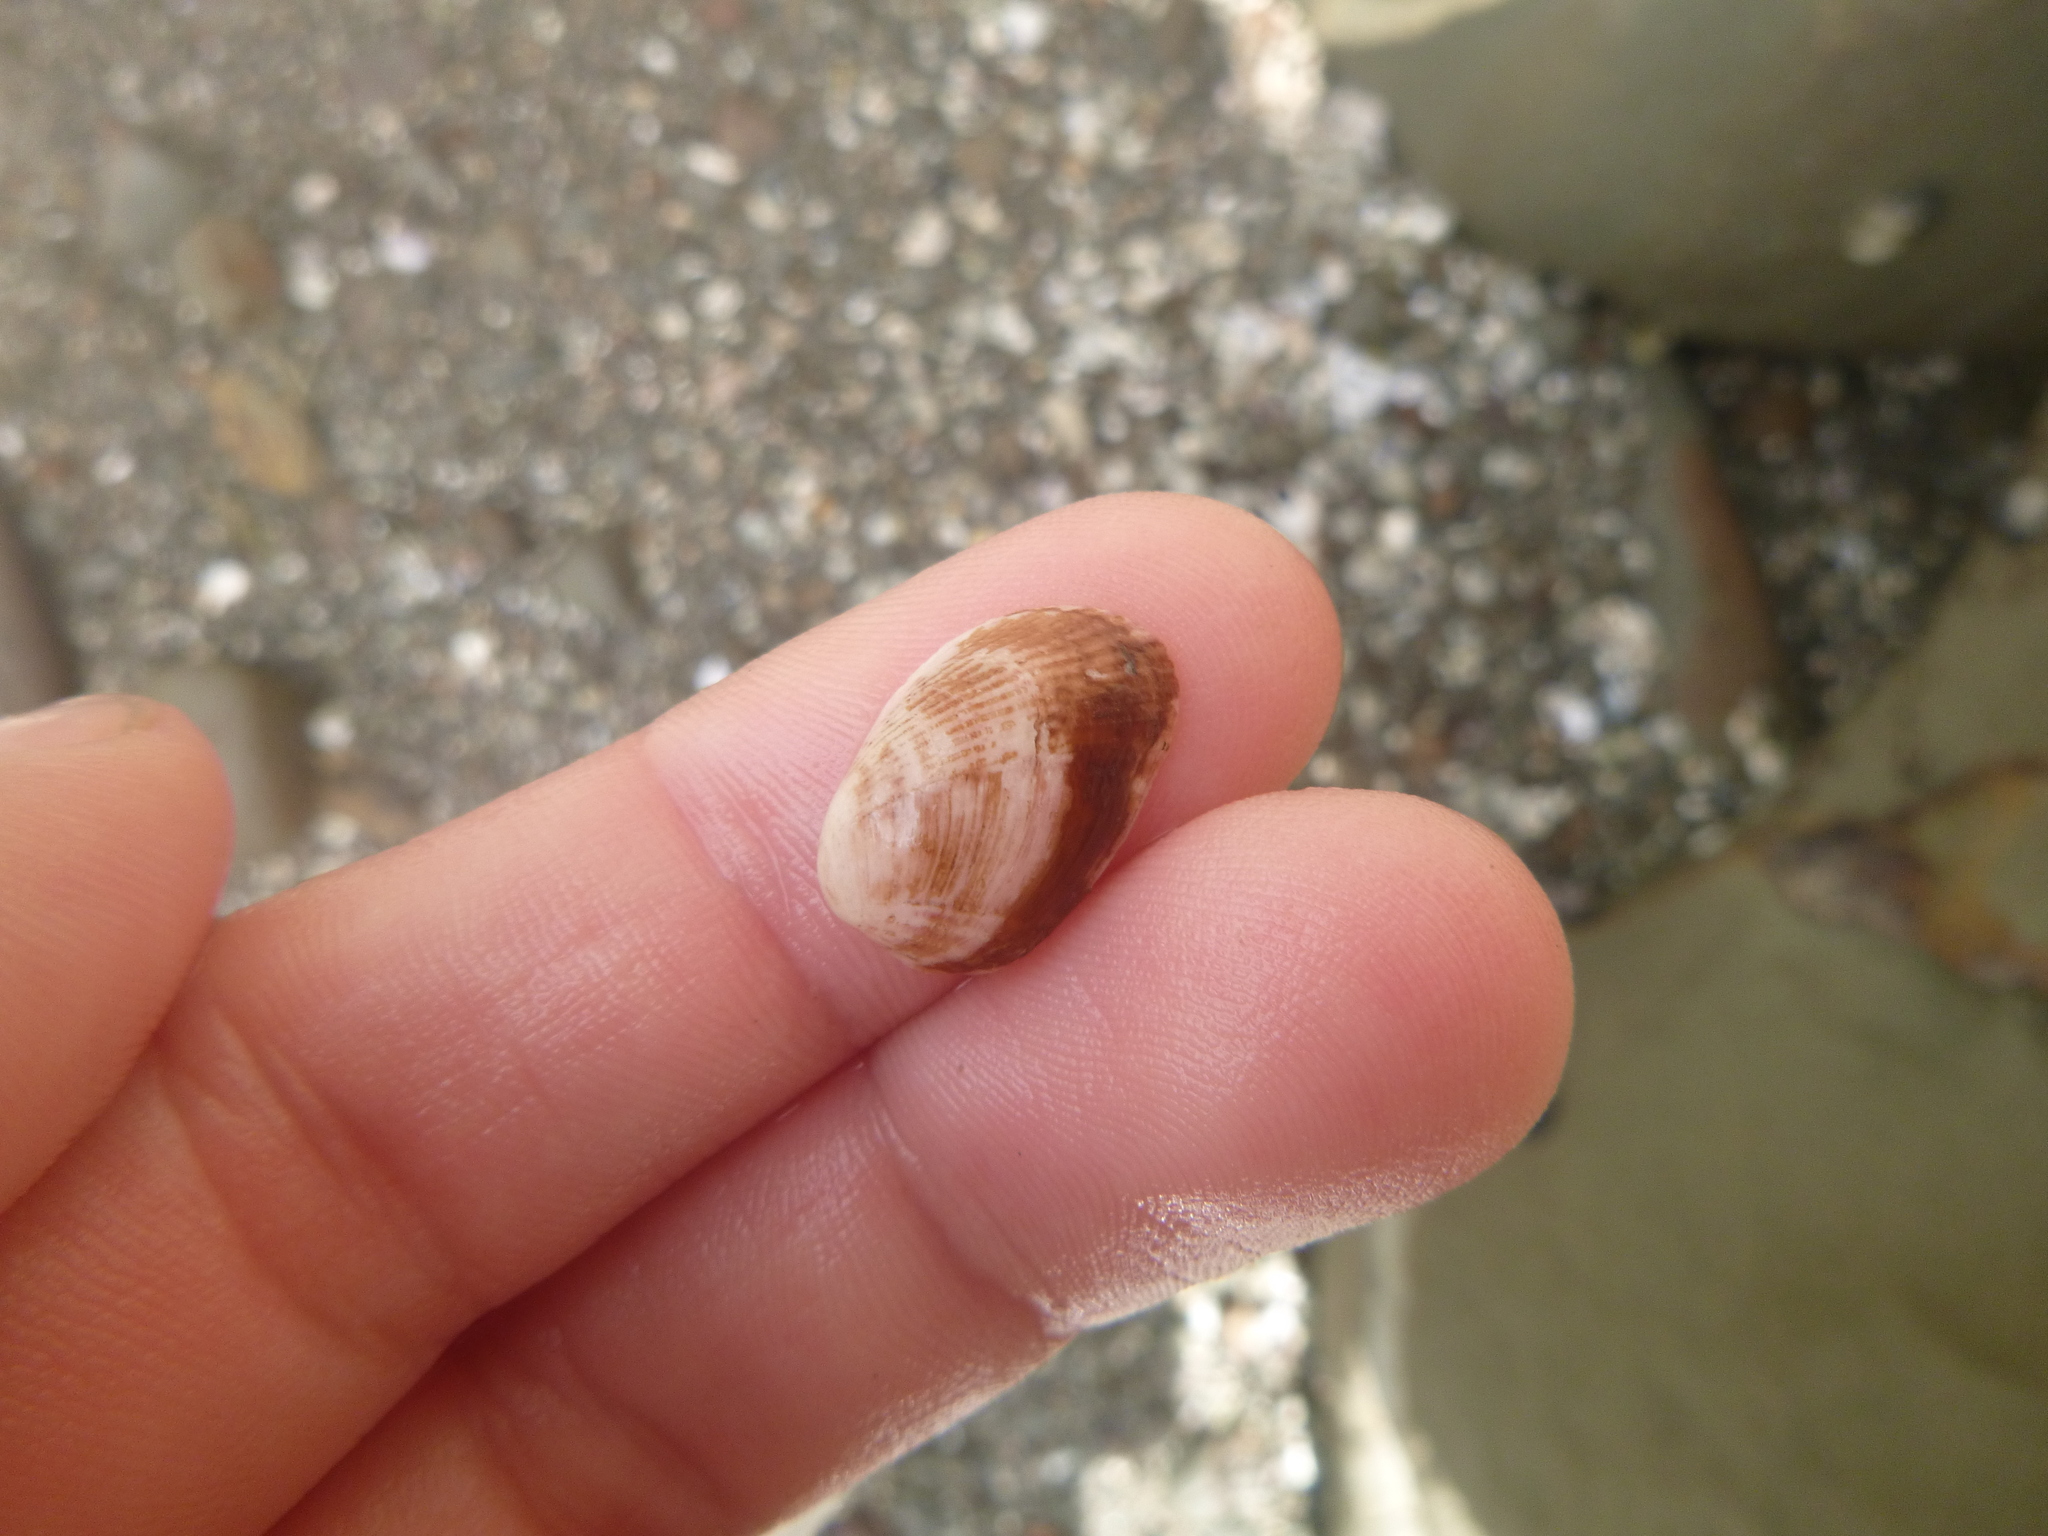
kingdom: Animalia
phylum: Mollusca
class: Bivalvia
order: Mytilida
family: Mytilidae
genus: Musculus
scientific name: Musculus impactus
